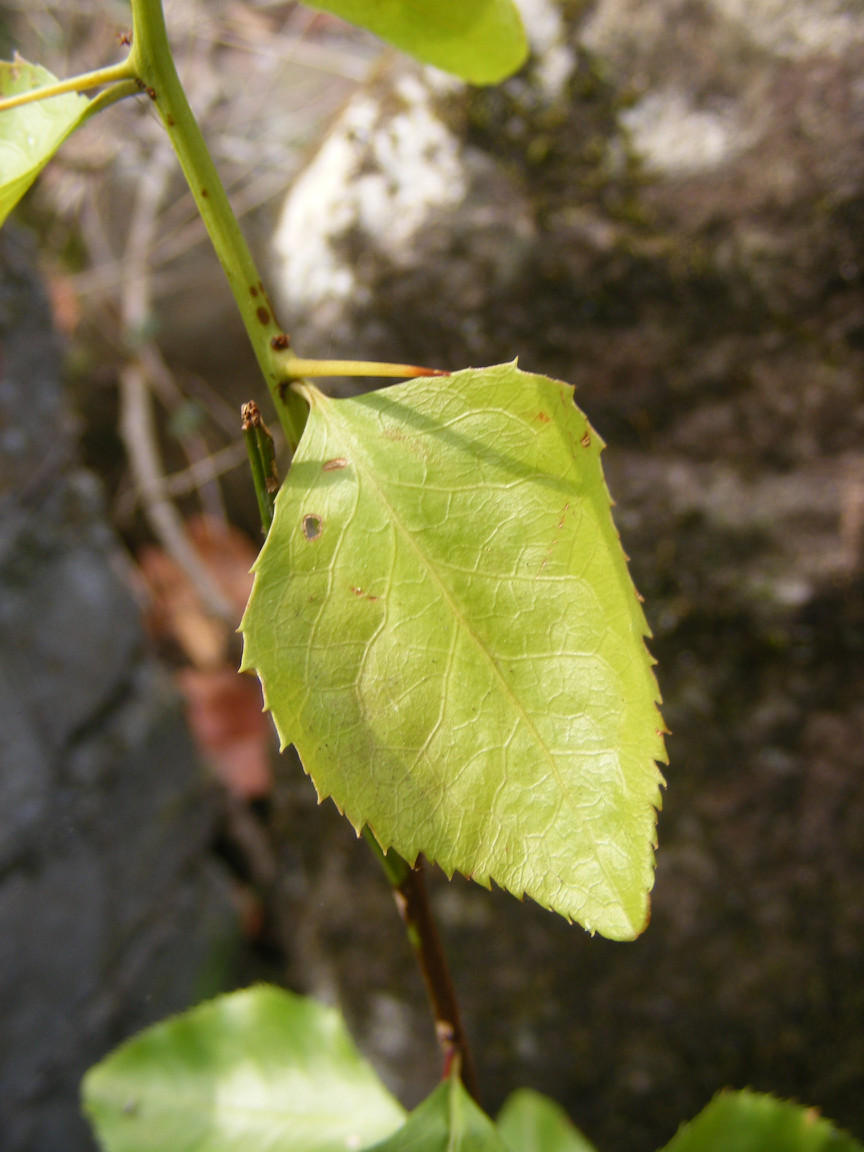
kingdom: Plantae
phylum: Tracheophyta
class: Magnoliopsida
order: Celastrales
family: Celastraceae
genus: Gymnosporia
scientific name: Gymnosporia harveyana
